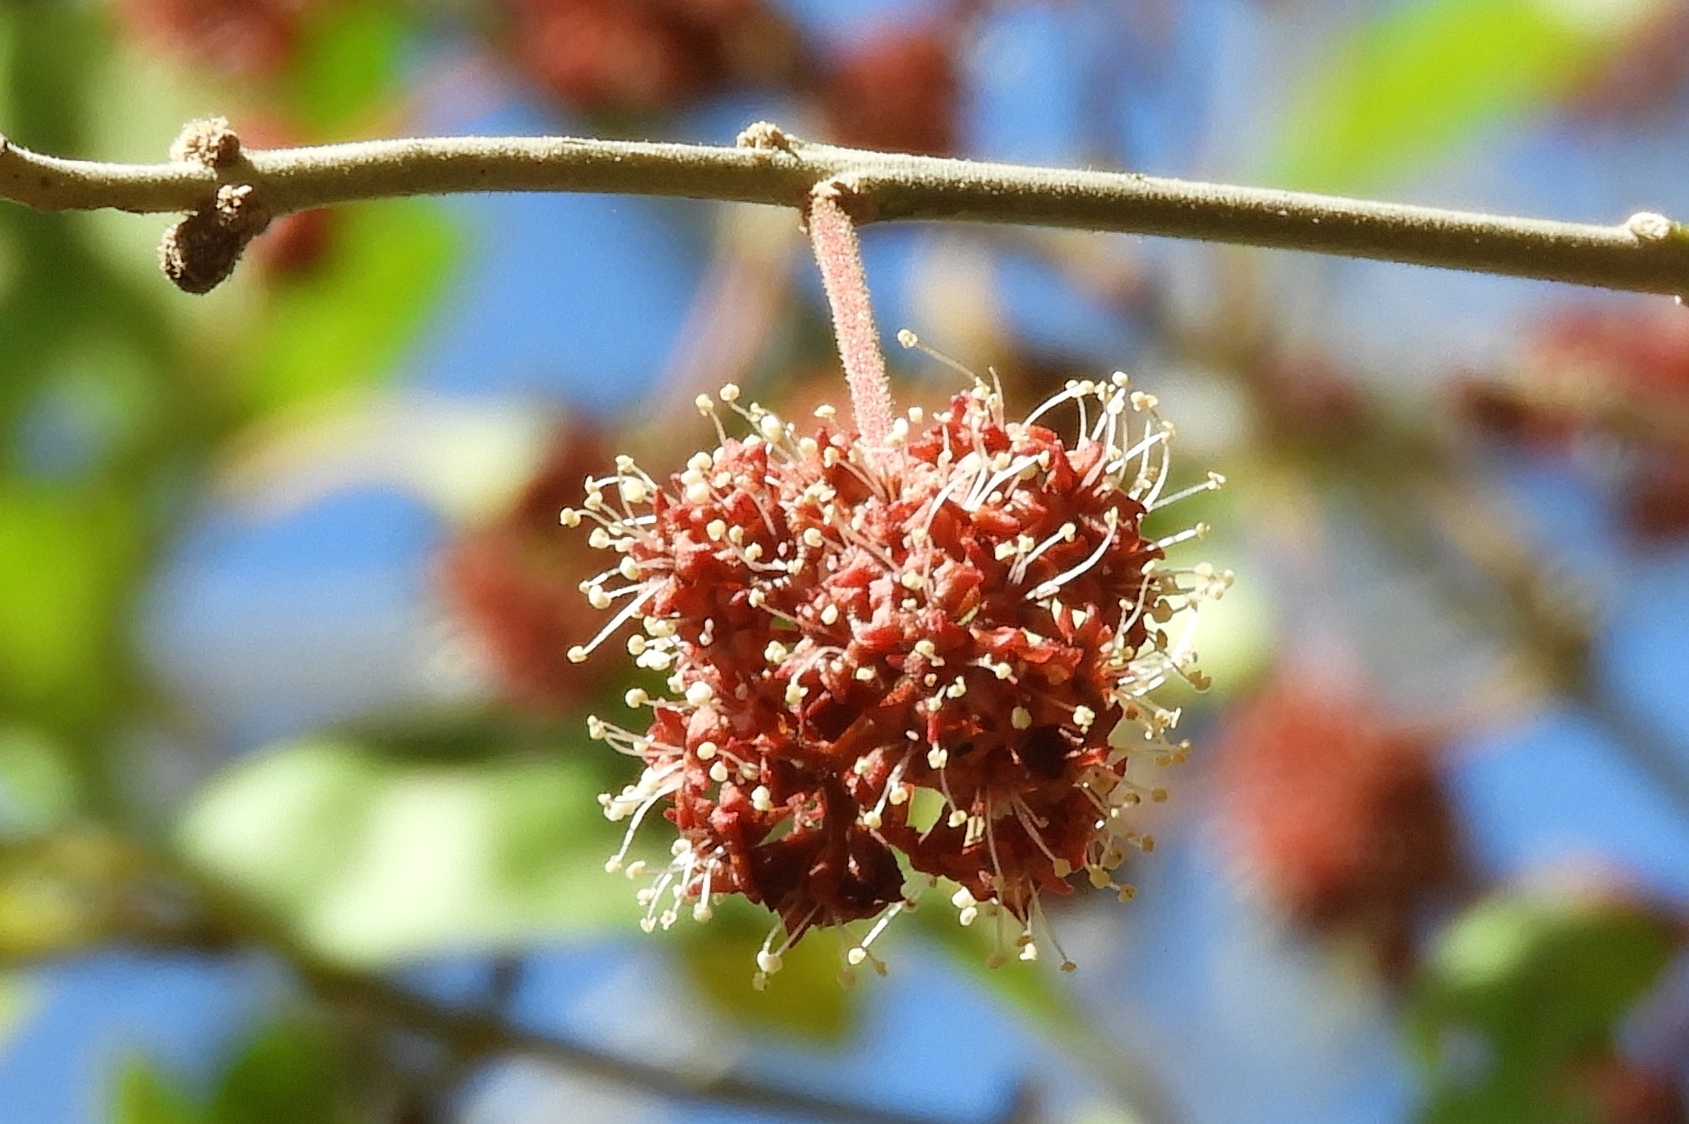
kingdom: Plantae
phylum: Tracheophyta
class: Magnoliopsida
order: Caryophyllales
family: Nyctaginaceae
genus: Pisonia
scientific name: Pisonia capitata
